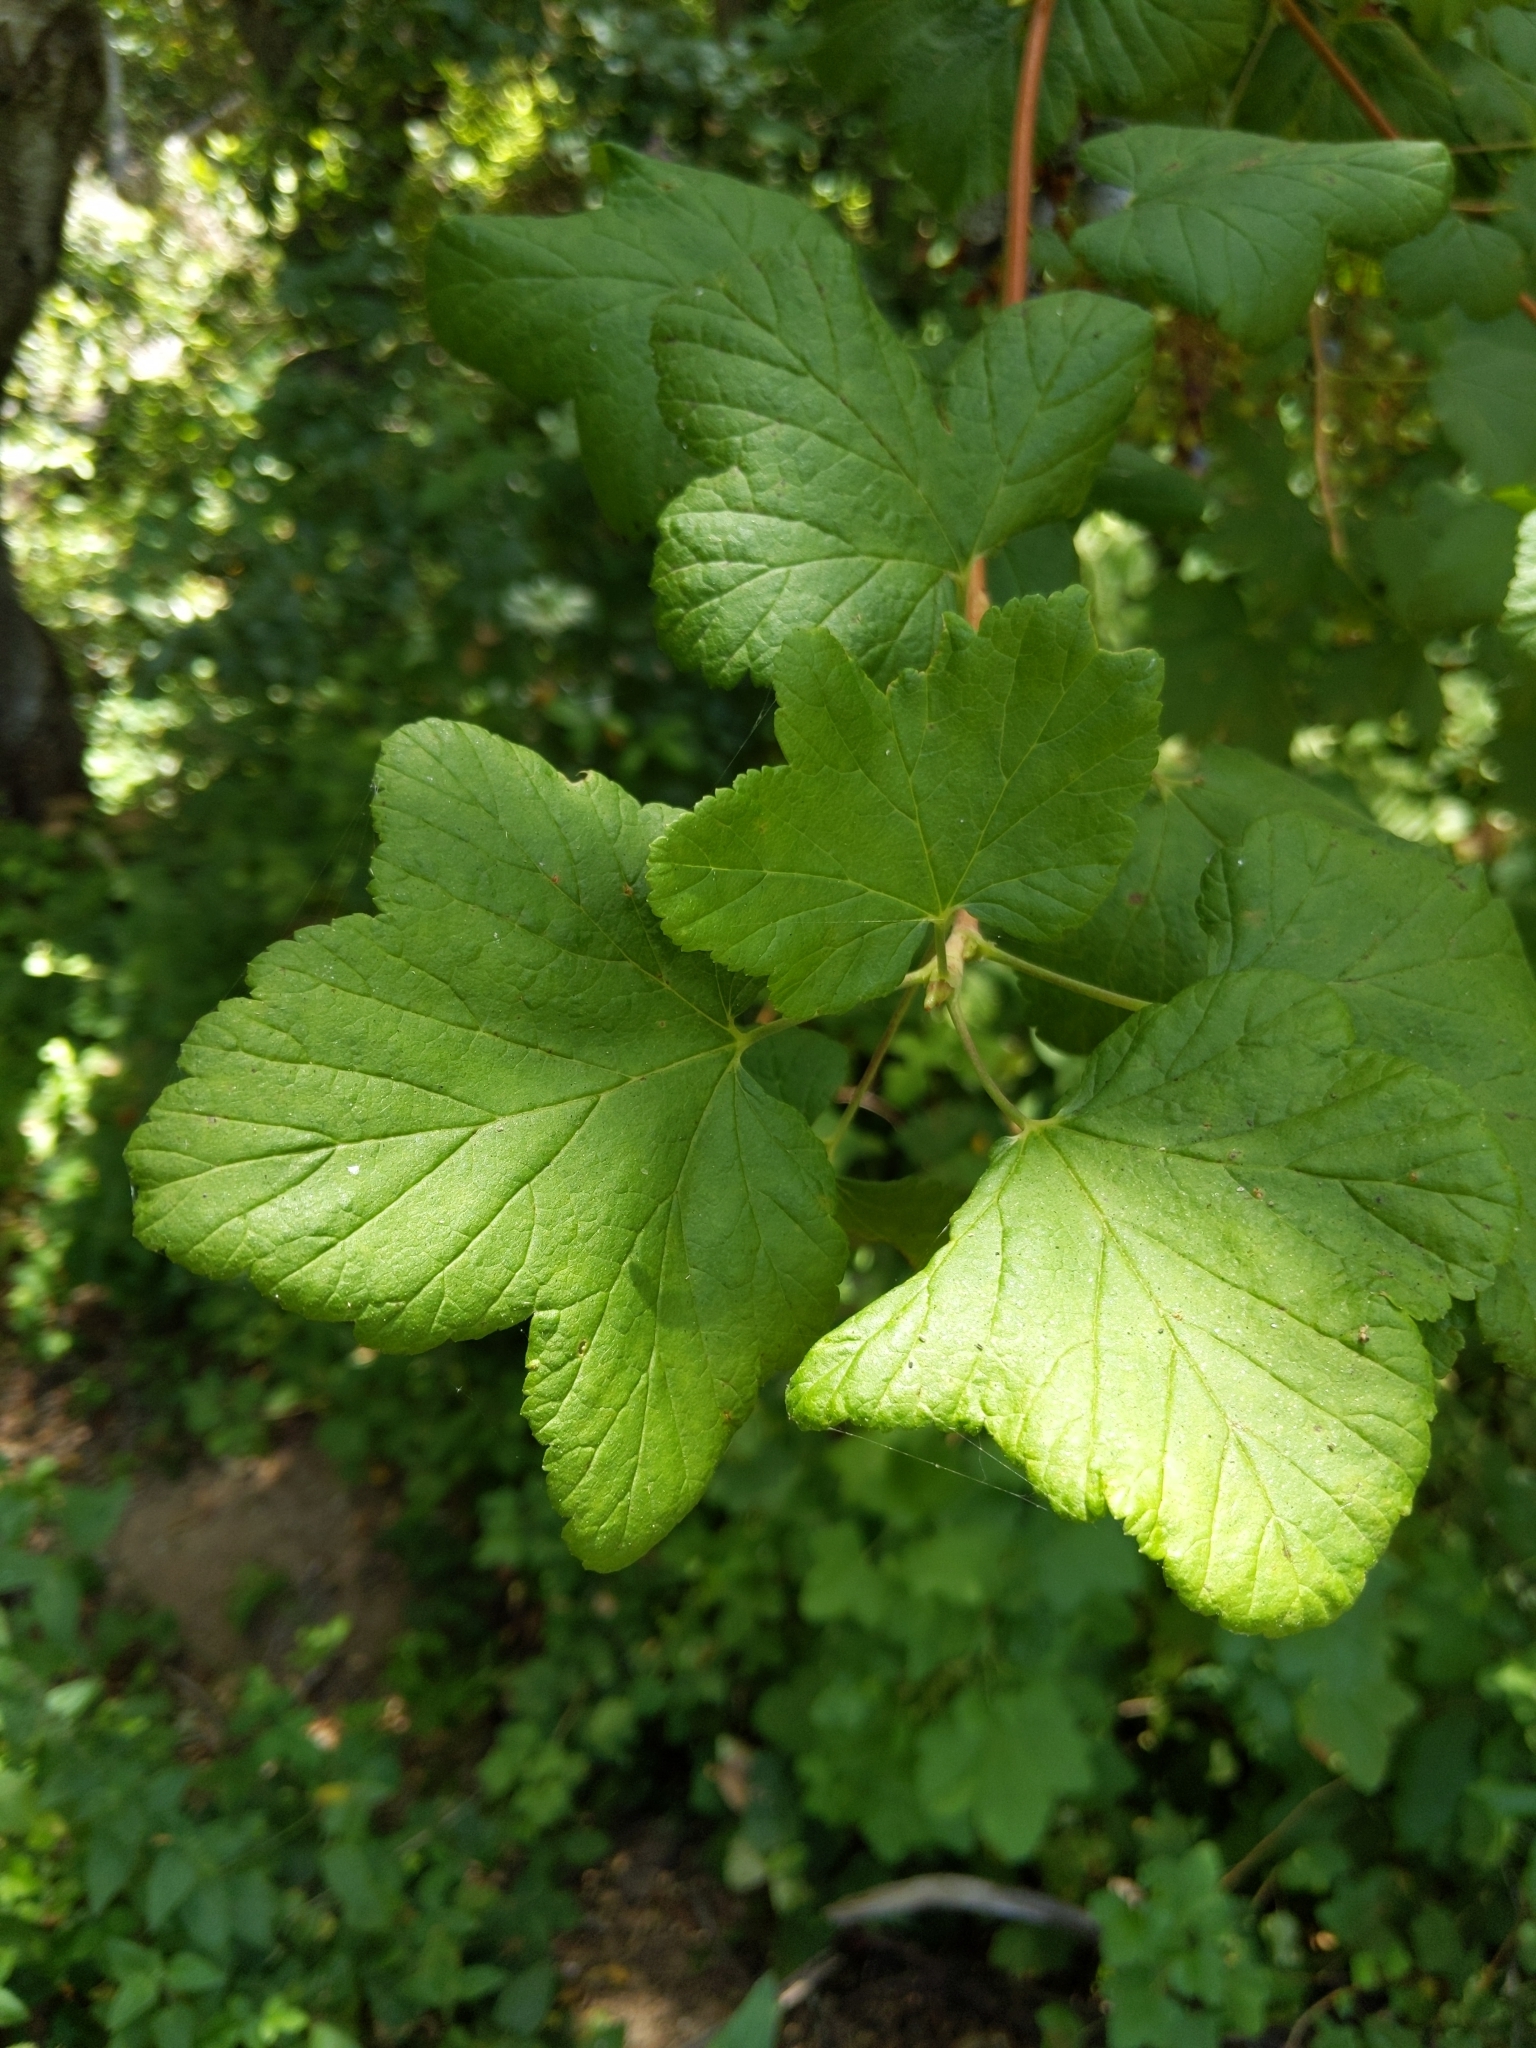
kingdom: Plantae
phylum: Tracheophyta
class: Magnoliopsida
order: Saxifragales
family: Grossulariaceae
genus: Ribes
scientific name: Ribes sanguineum
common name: Flowering currant
